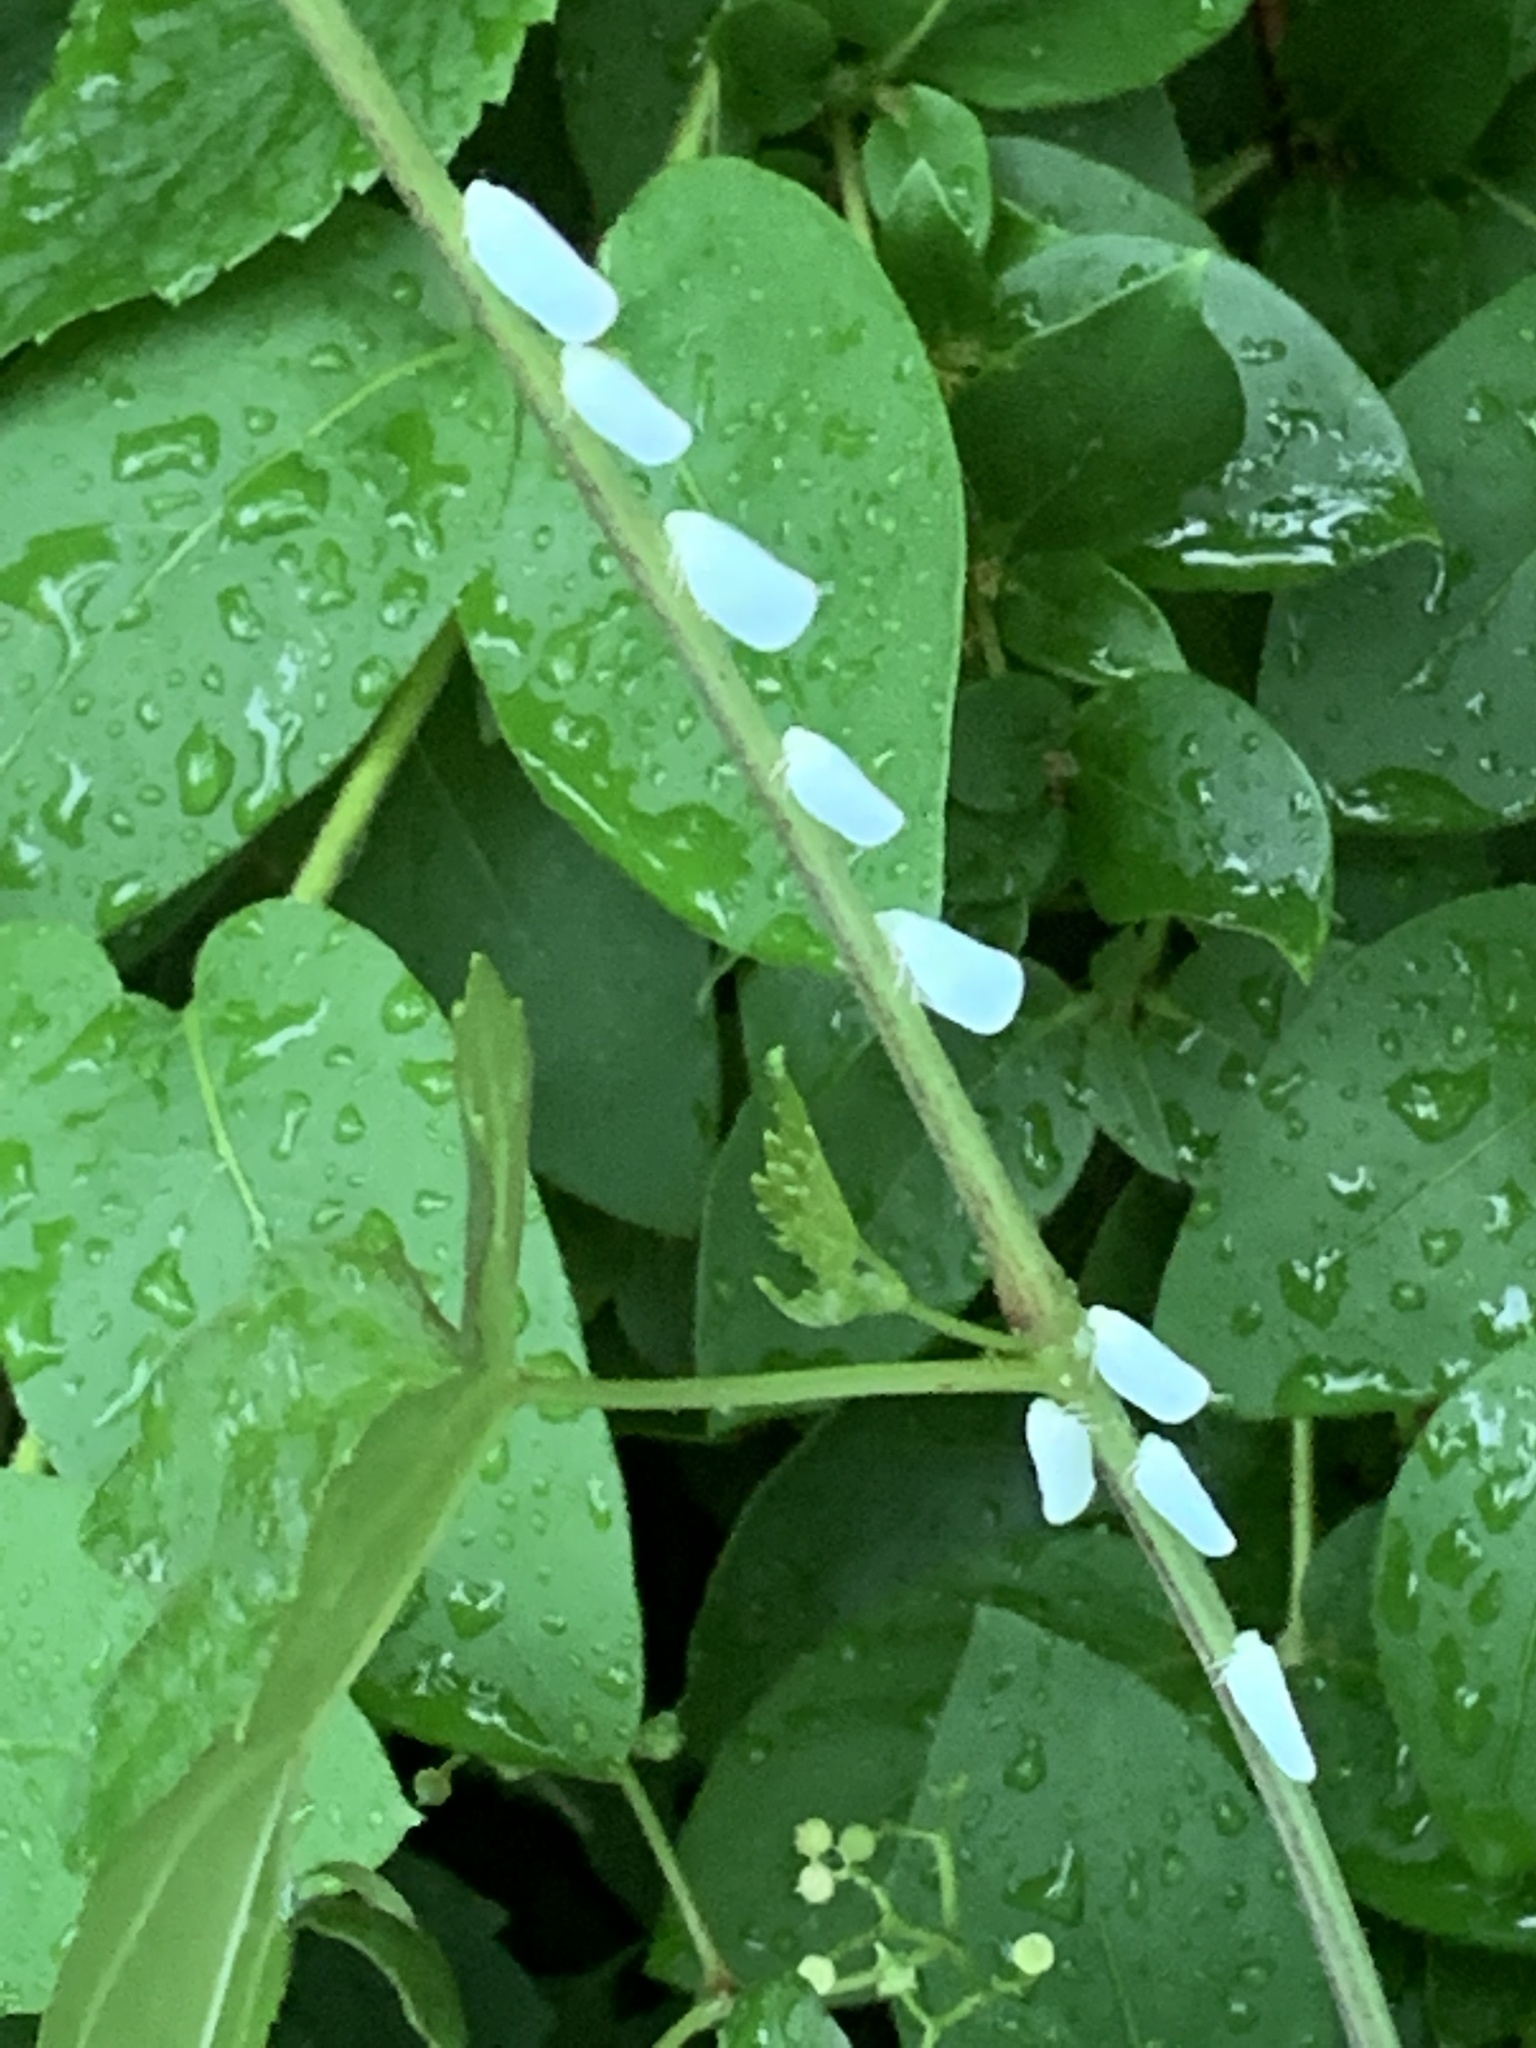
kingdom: Animalia
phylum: Arthropoda
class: Insecta
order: Hemiptera
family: Flatidae
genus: Ormenoides
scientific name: Ormenoides venusta
